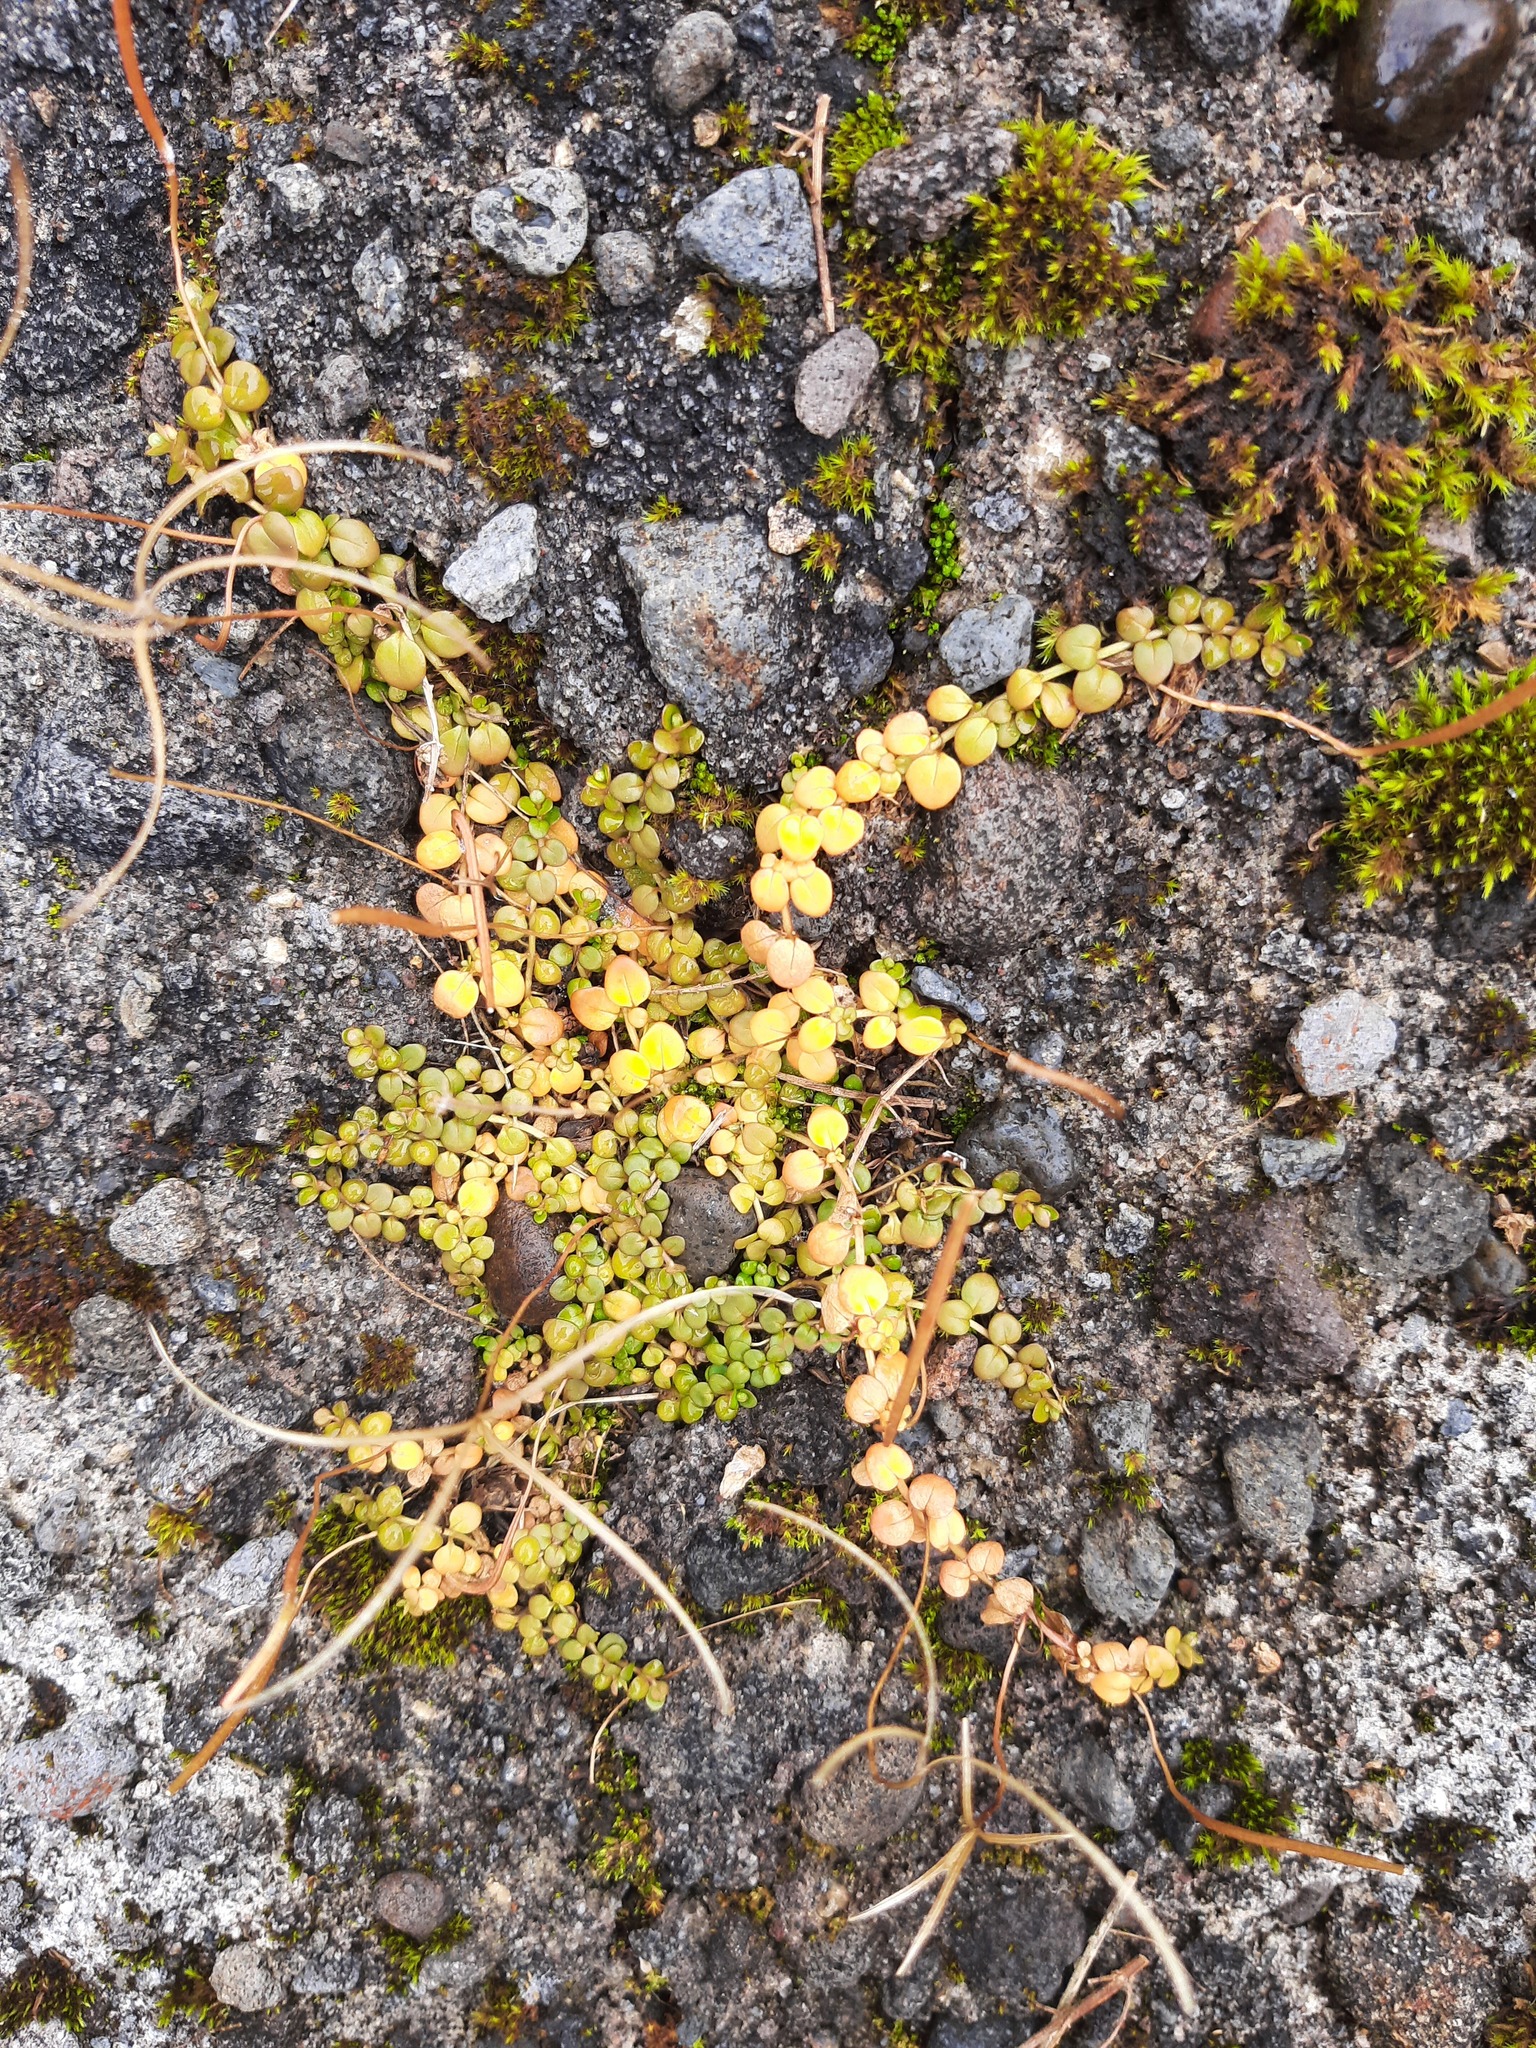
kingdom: Plantae
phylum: Tracheophyta
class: Magnoliopsida
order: Myrtales
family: Onagraceae
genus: Epilobium
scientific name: Epilobium brunnescens
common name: New zealand willowherb
